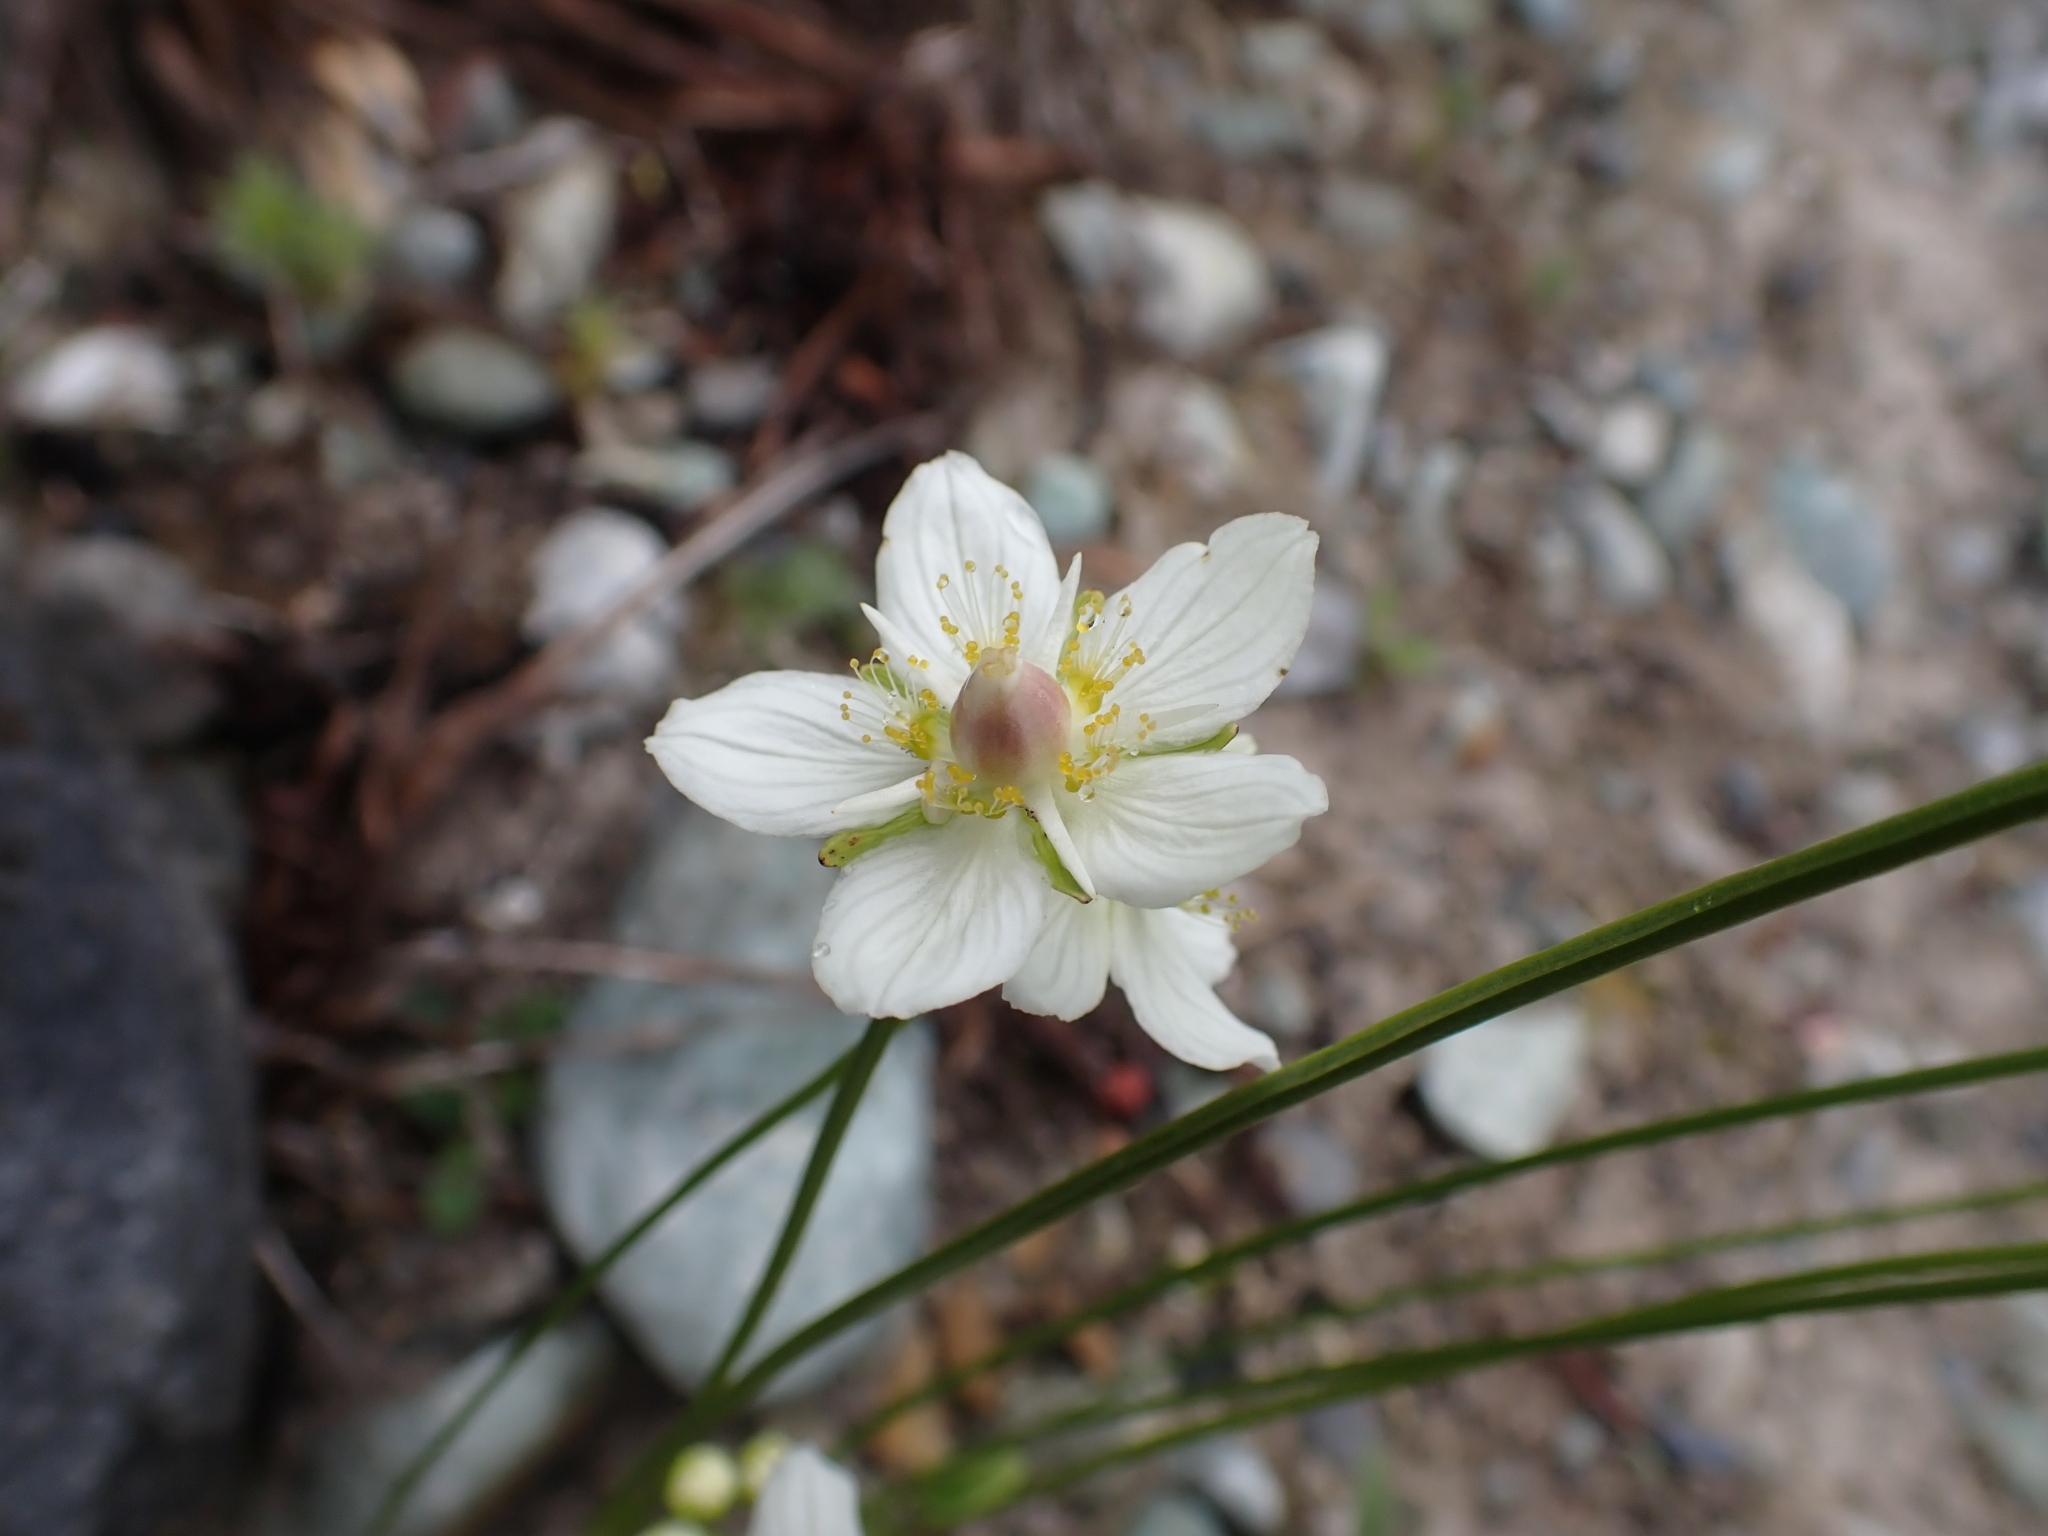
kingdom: Plantae
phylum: Tracheophyta
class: Magnoliopsida
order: Celastrales
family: Parnassiaceae
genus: Parnassia
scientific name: Parnassia palustris
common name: Grass-of-parnassus
